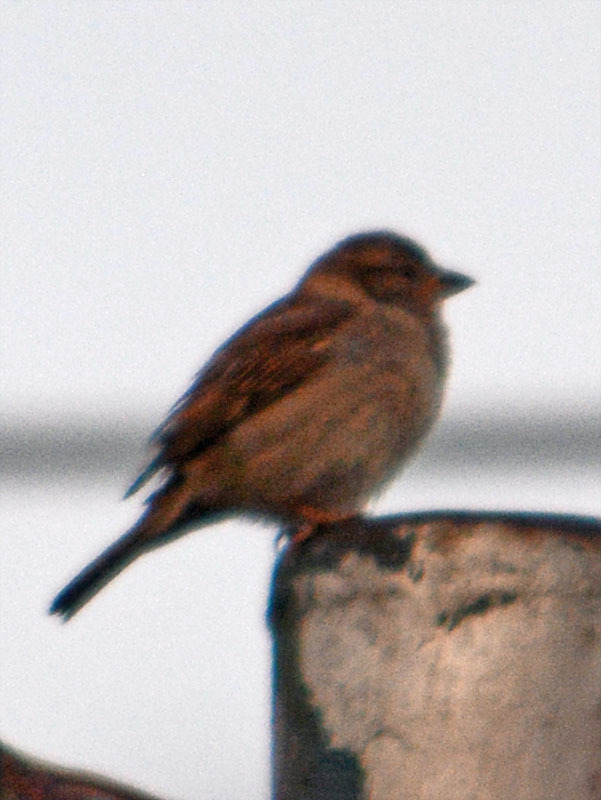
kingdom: Animalia
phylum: Chordata
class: Aves
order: Passeriformes
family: Passeridae
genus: Passer
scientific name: Passer domesticus
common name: House sparrow
